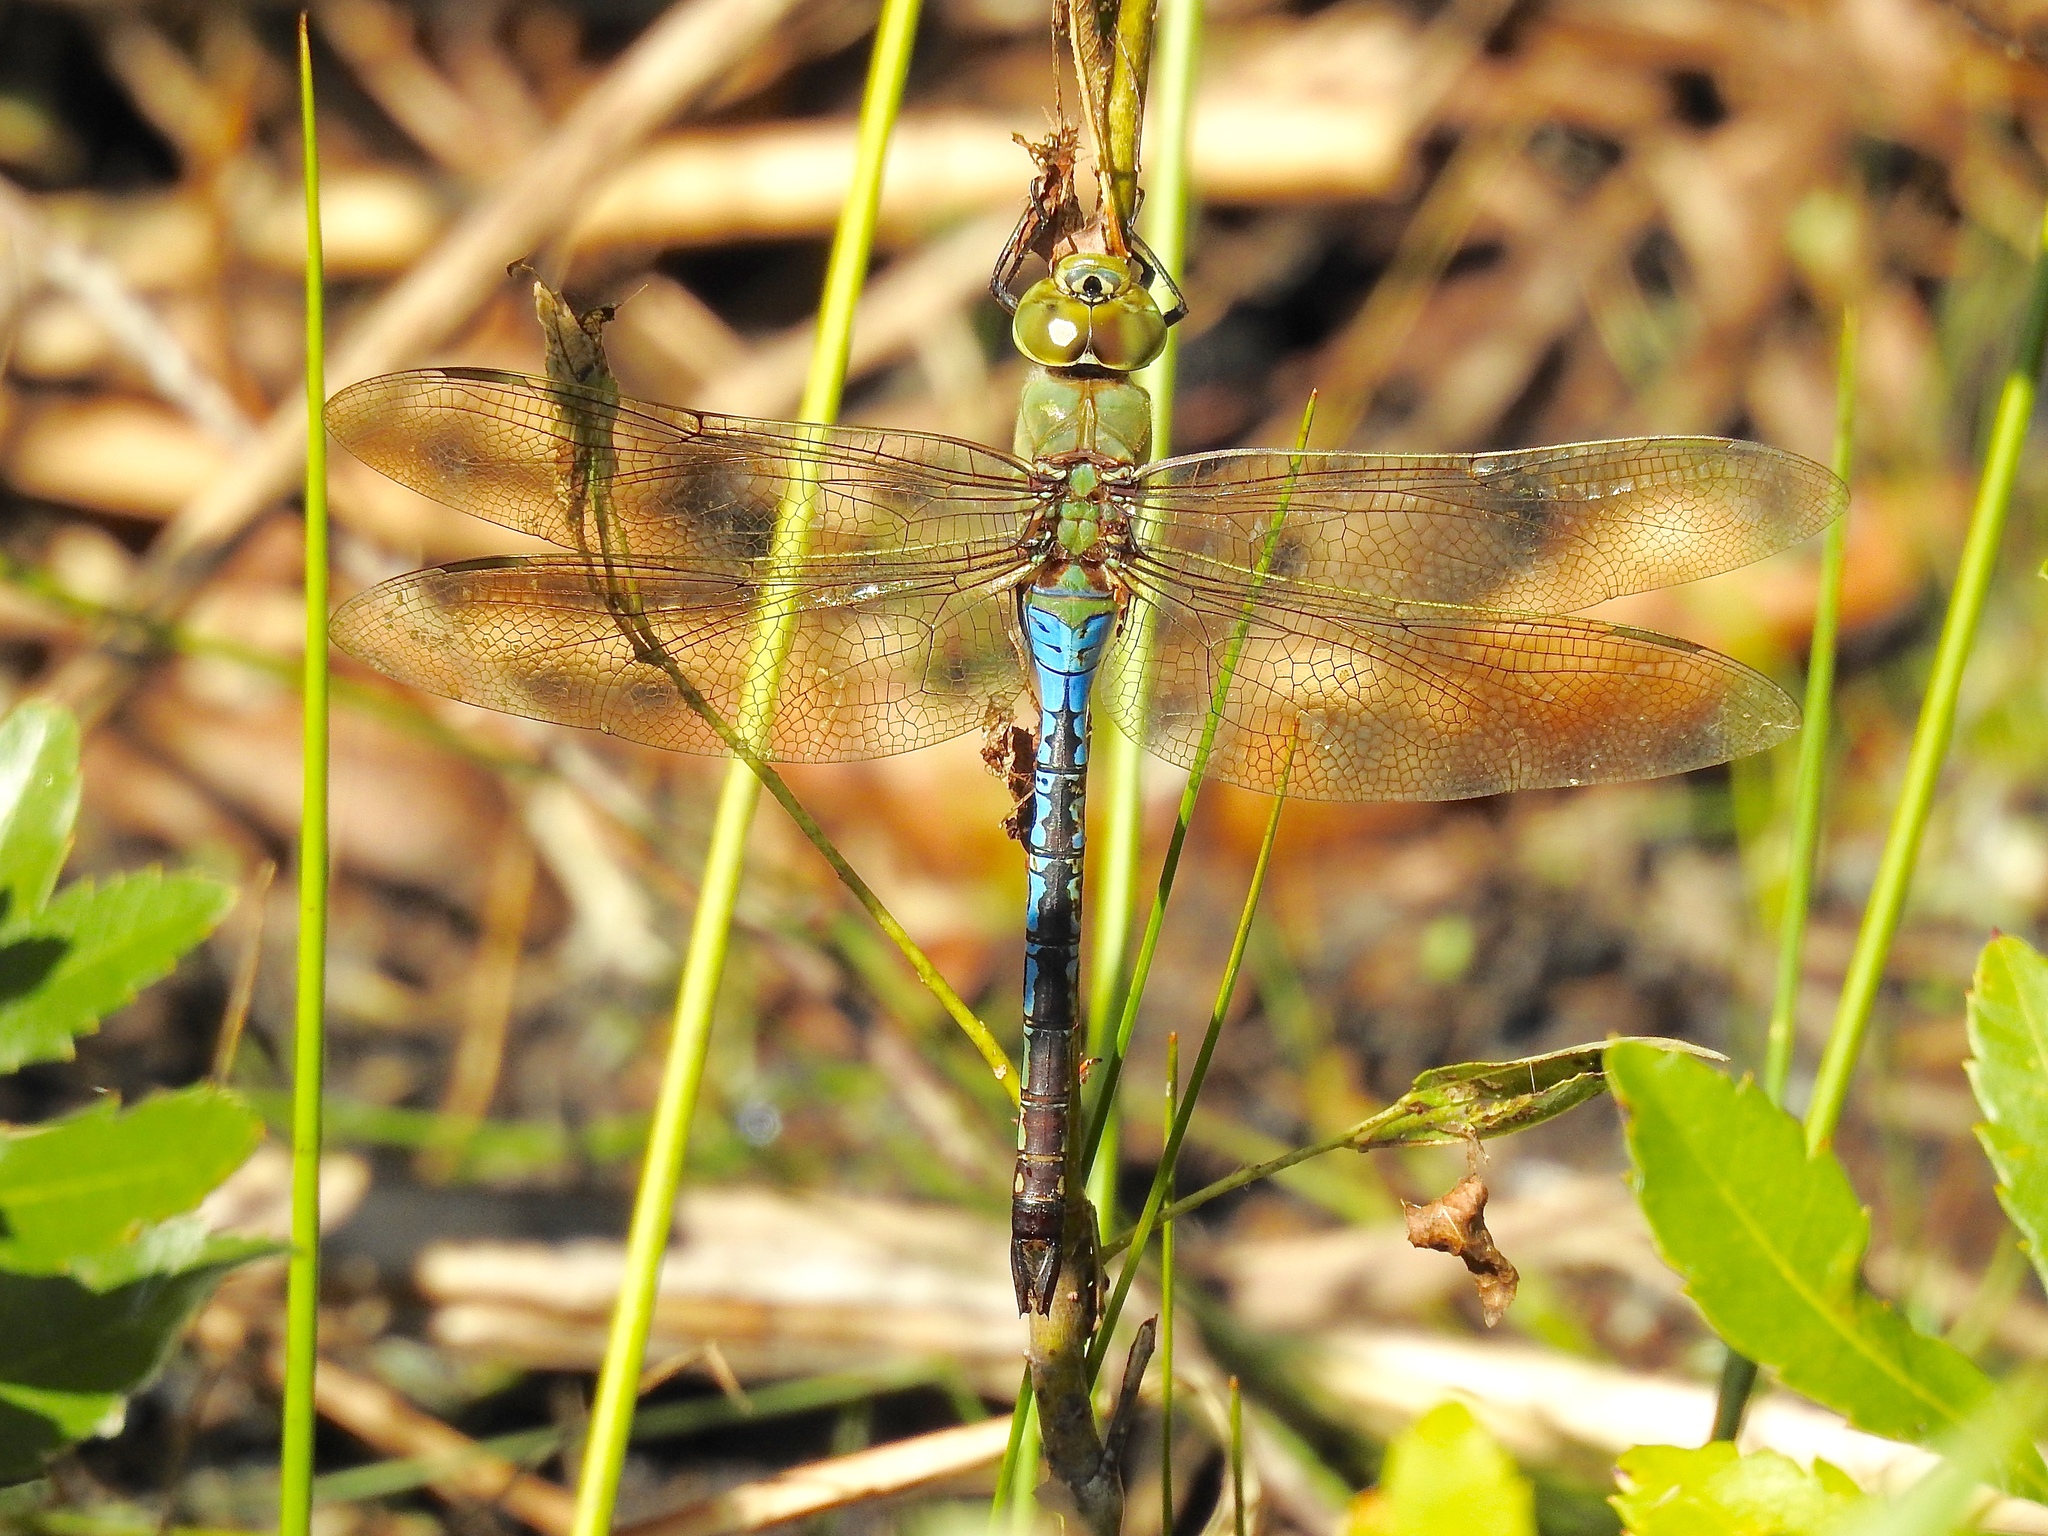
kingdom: Animalia
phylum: Arthropoda
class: Insecta
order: Odonata
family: Aeshnidae
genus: Anax
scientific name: Anax junius
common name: Common green darner
